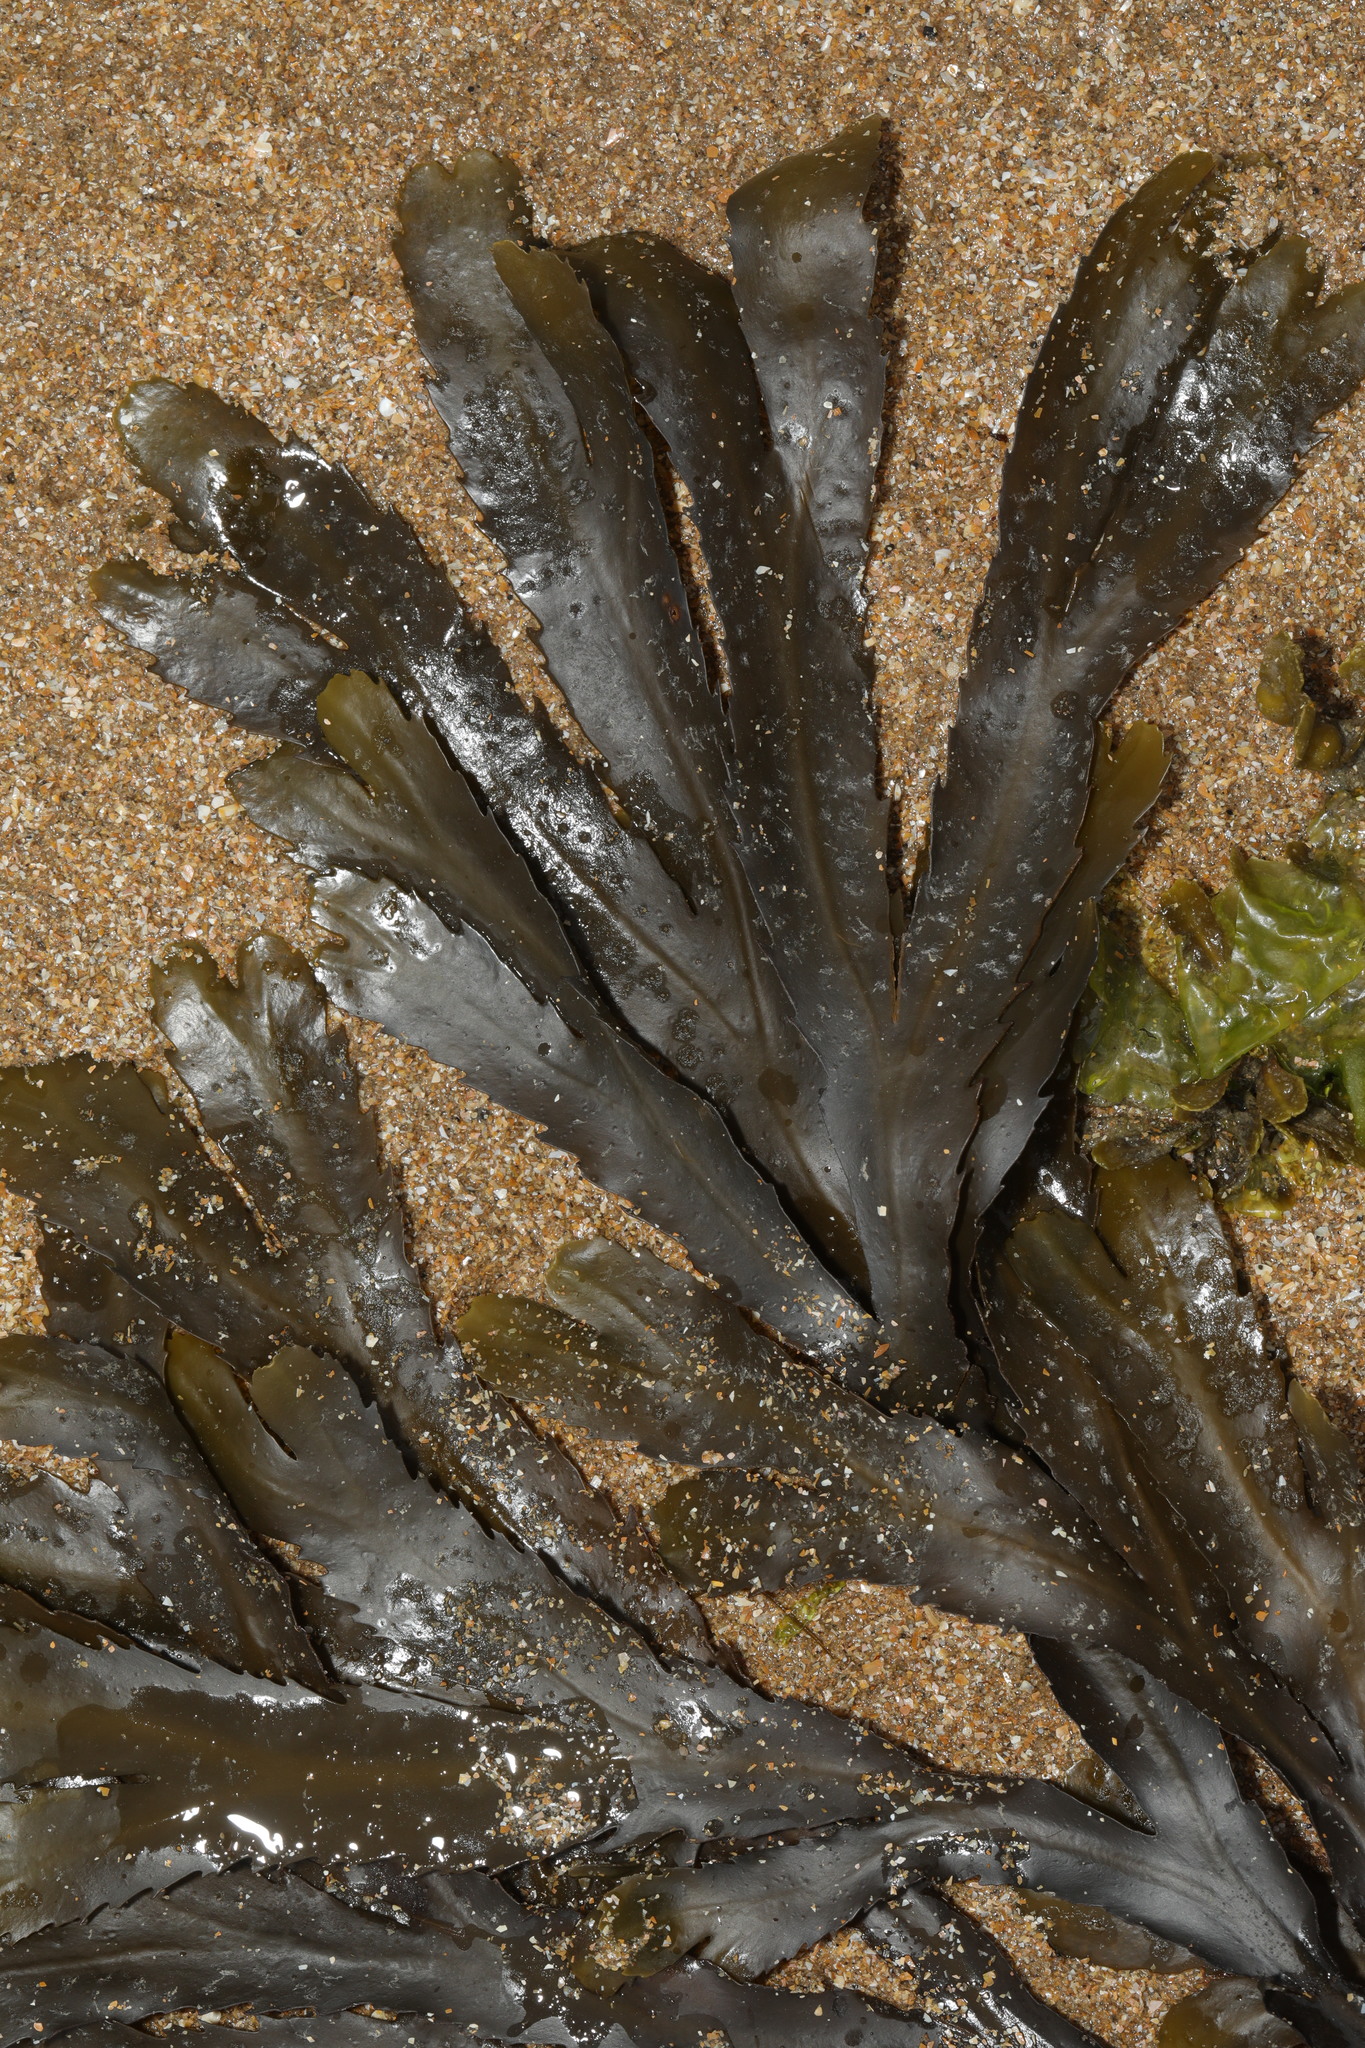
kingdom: Chromista
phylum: Ochrophyta
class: Phaeophyceae
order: Fucales
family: Fucaceae
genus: Fucus
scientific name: Fucus serratus
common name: Toothed wrack
